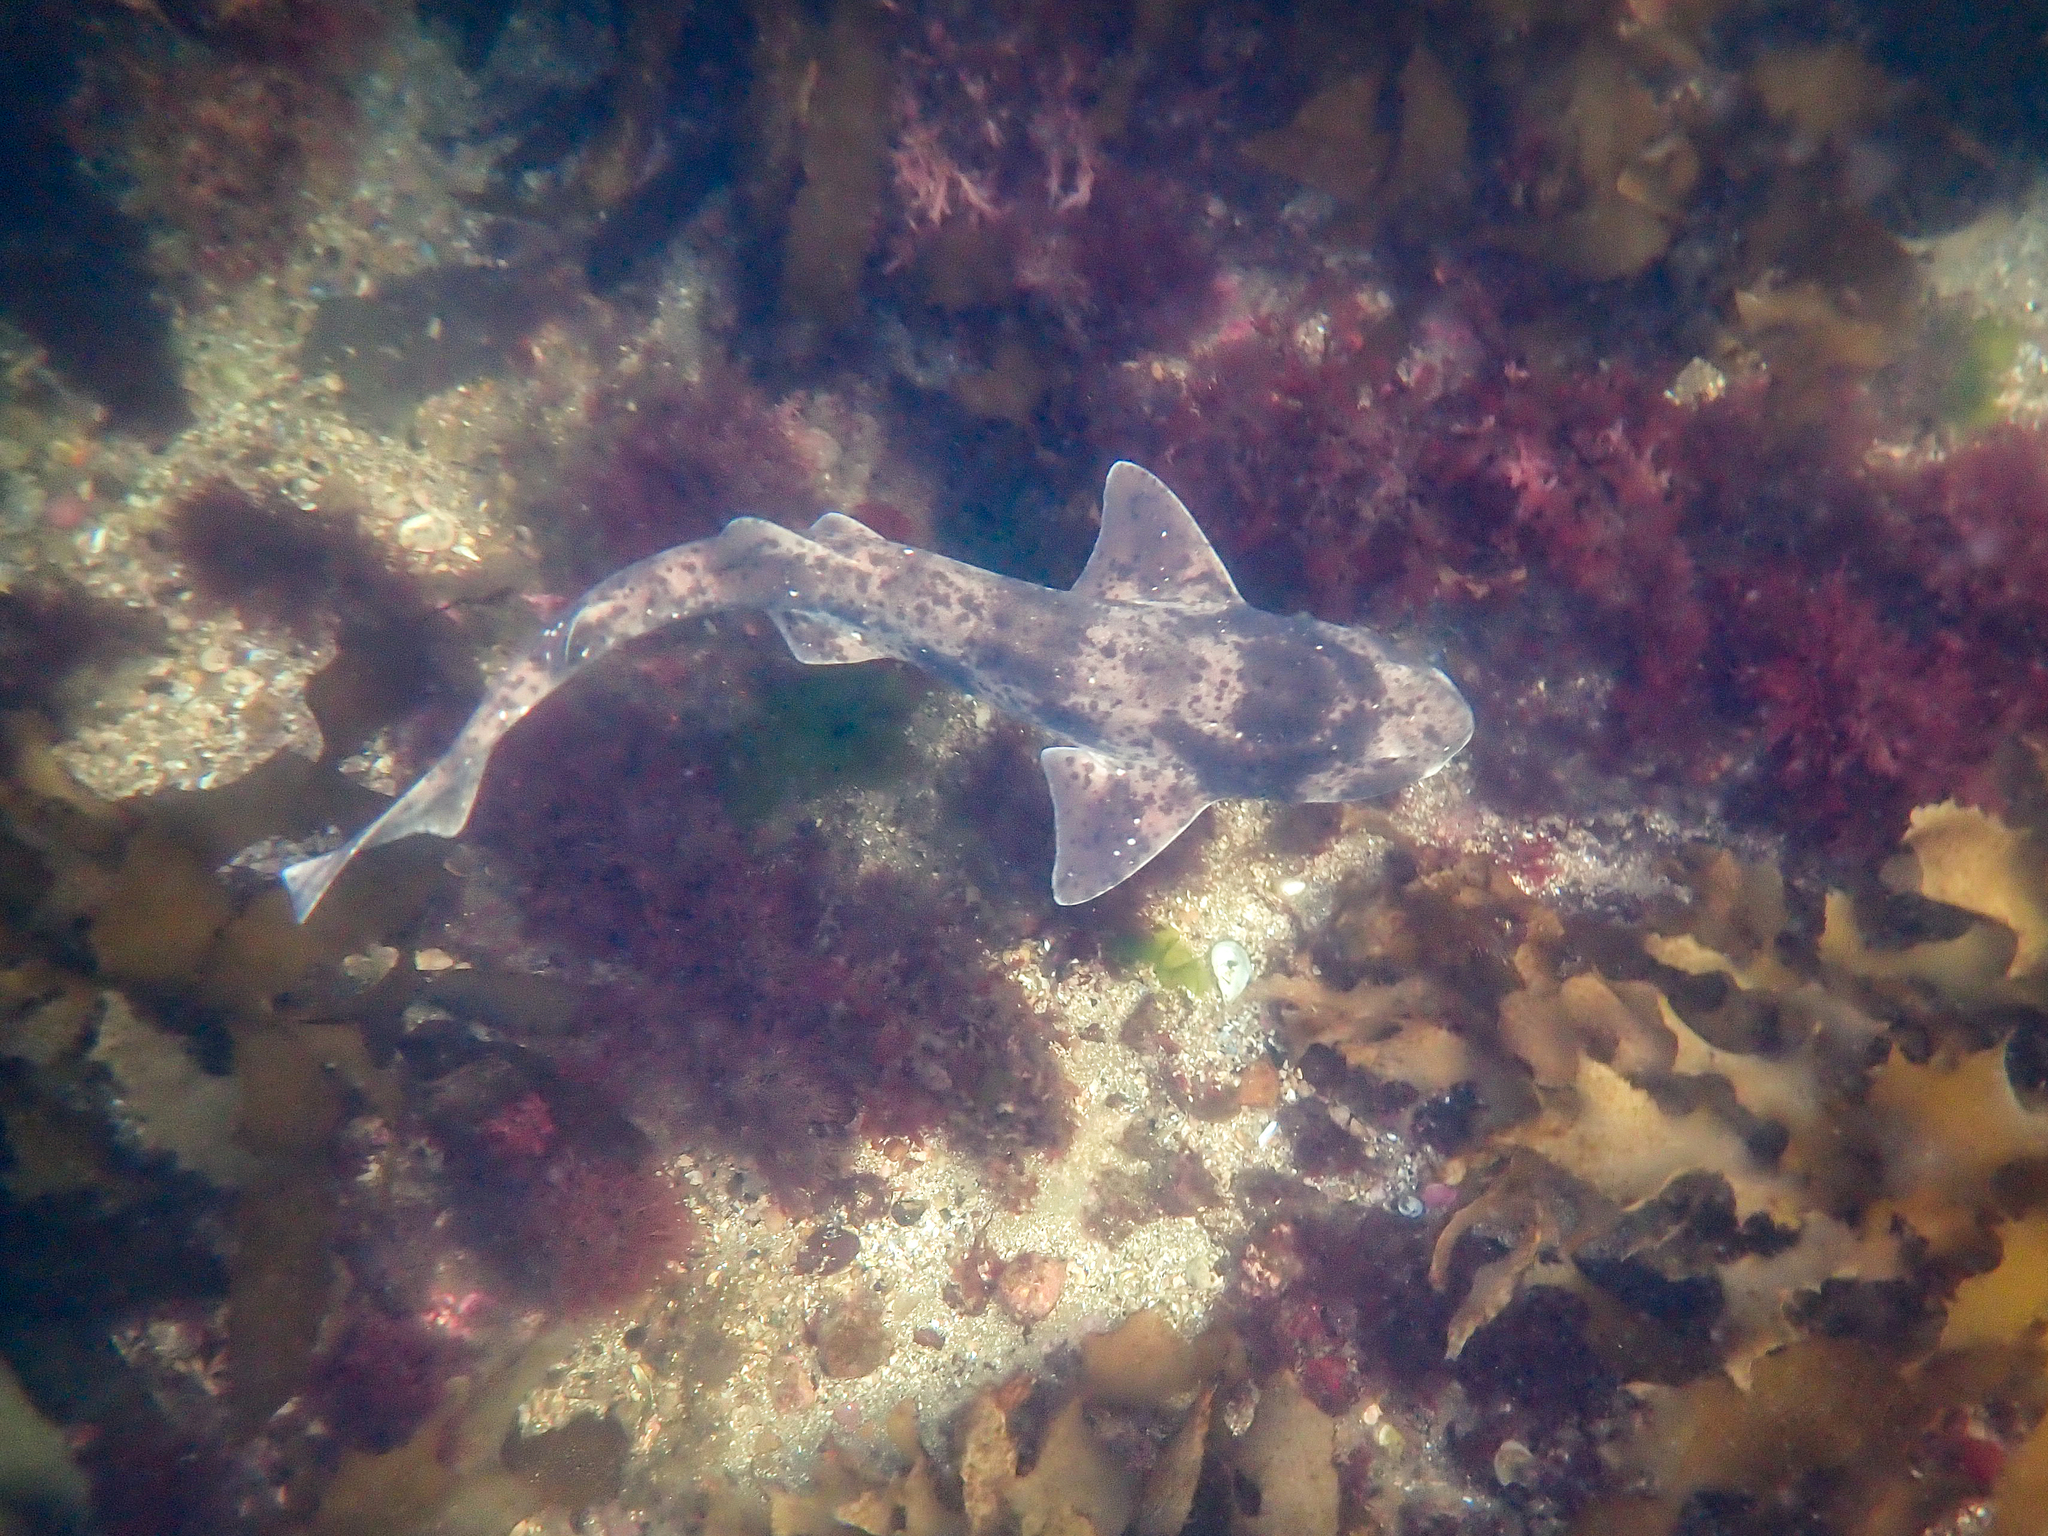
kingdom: Animalia
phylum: Chordata
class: Elasmobranchii
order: Carcharhiniformes
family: Scyliorhinidae
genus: Cephaloscyllium
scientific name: Cephaloscyllium laticeps
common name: Australian swellshark
